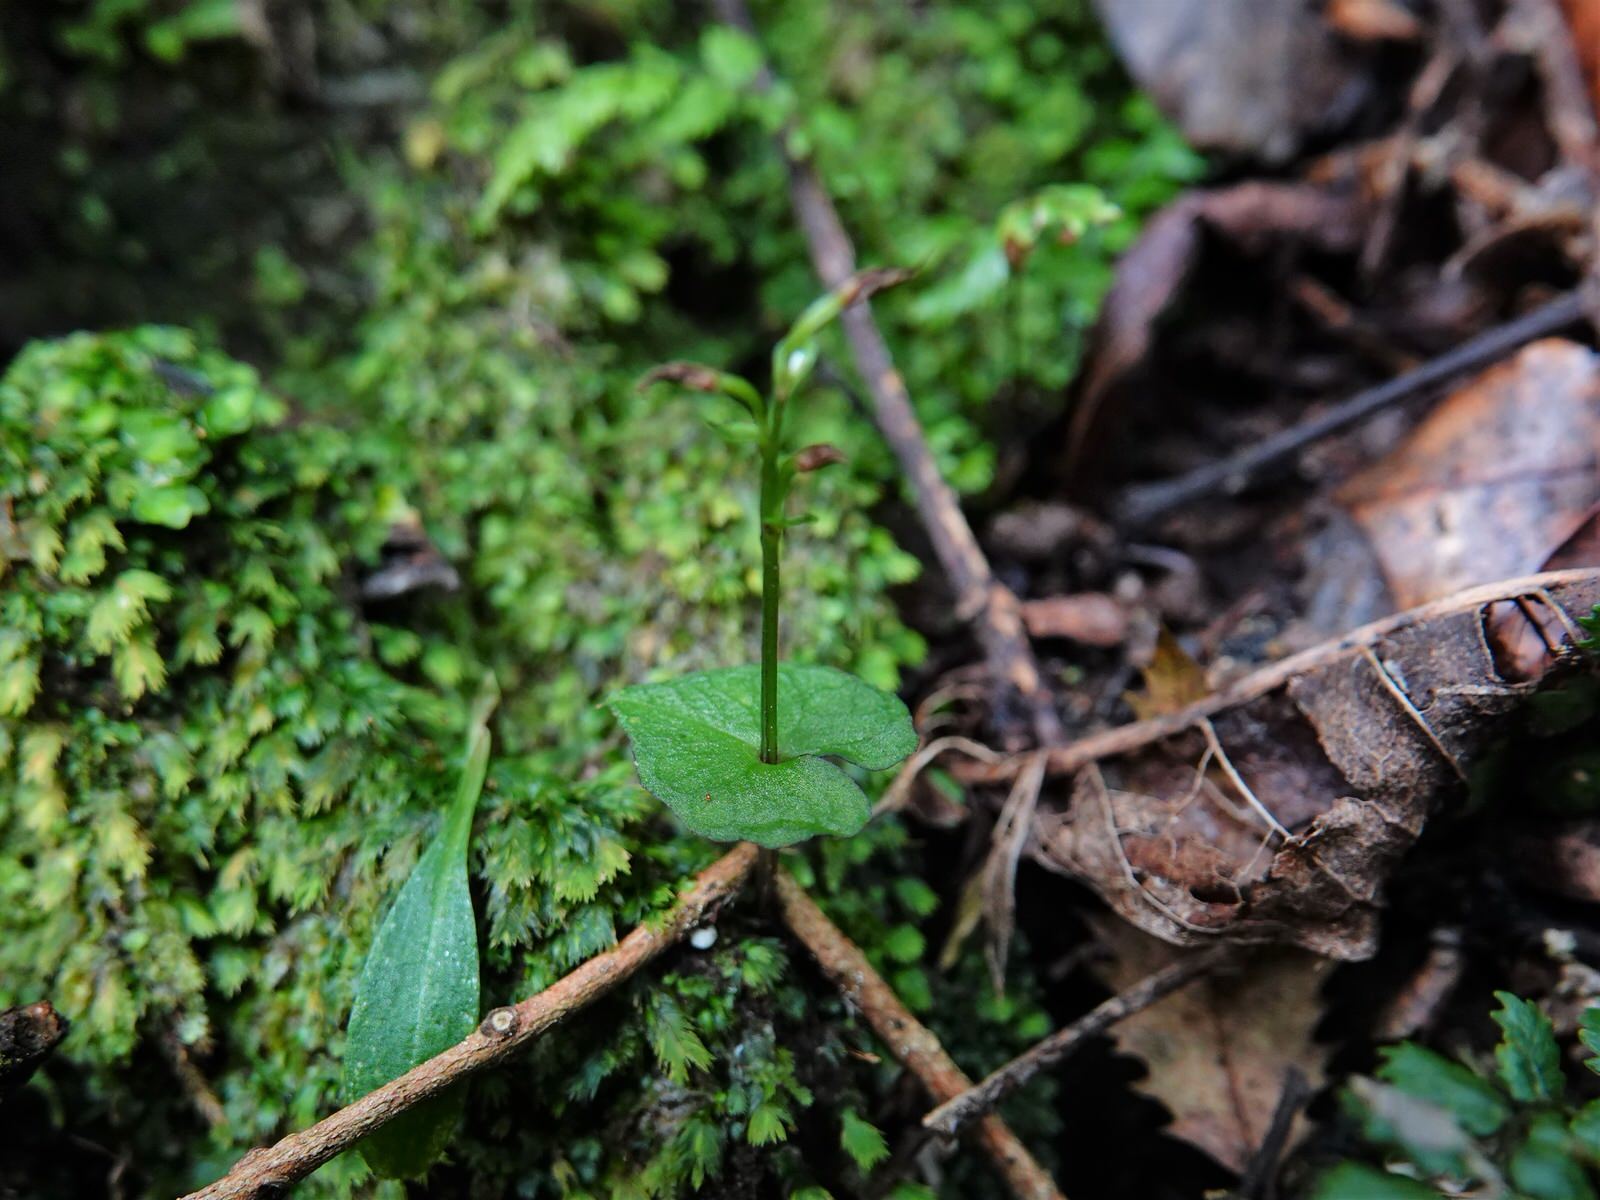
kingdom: Plantae
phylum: Tracheophyta
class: Liliopsida
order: Asparagales
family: Orchidaceae
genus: Acianthus
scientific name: Acianthus sinclairii
